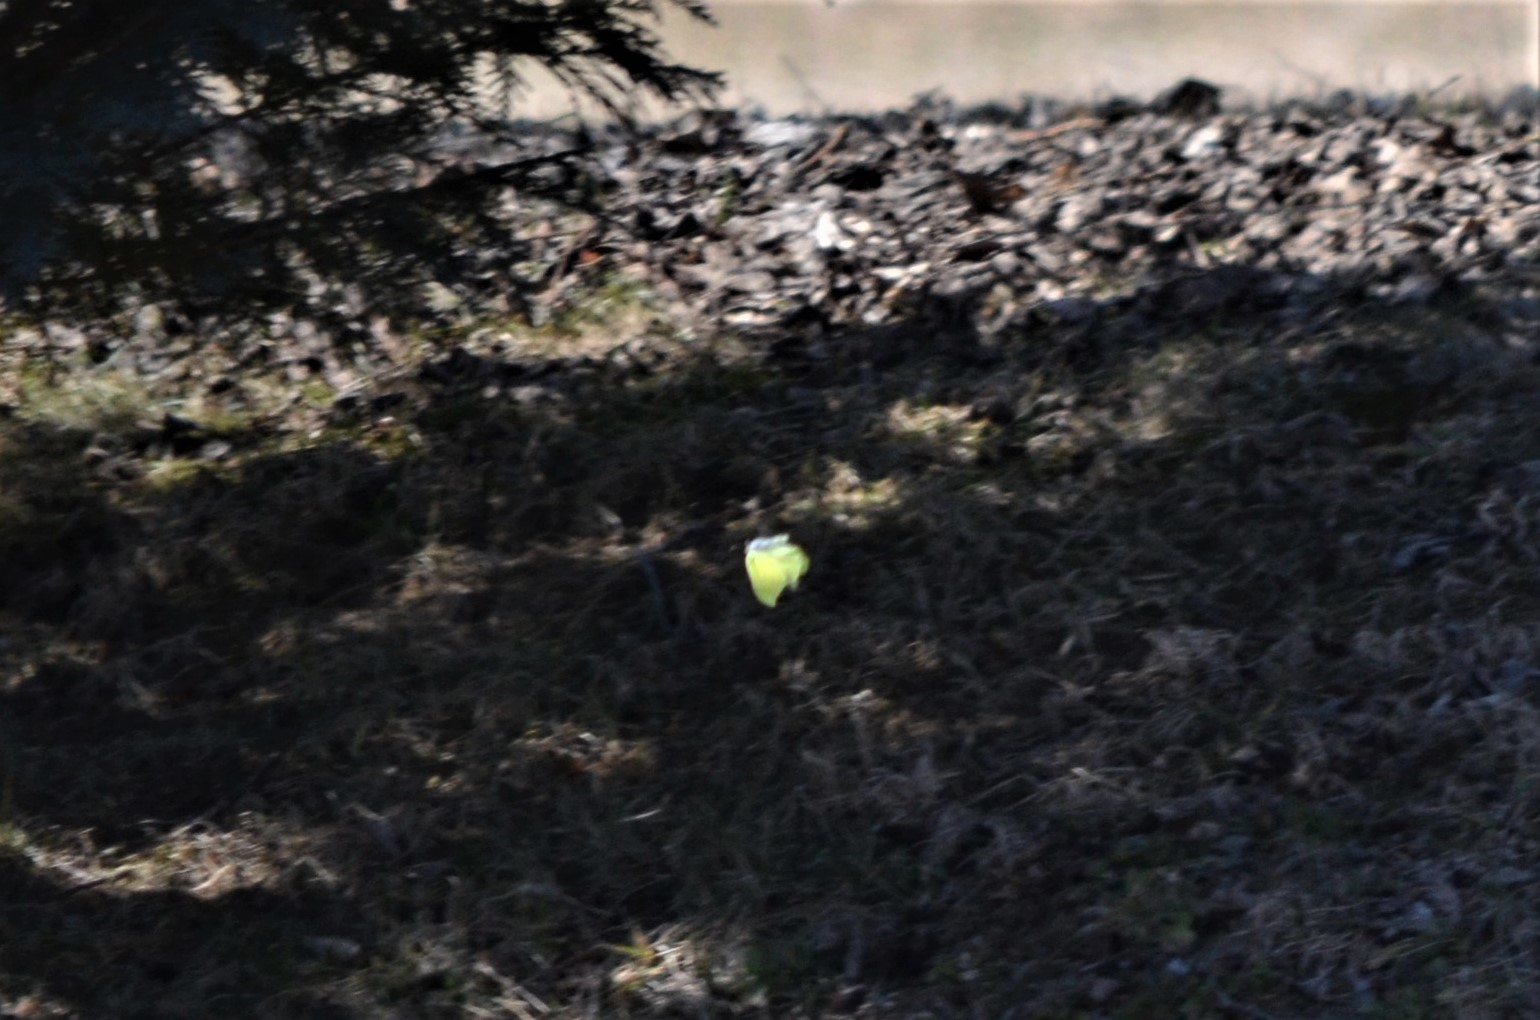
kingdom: Animalia
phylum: Arthropoda
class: Insecta
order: Lepidoptera
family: Pieridae
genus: Gonepteryx
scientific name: Gonepteryx rhamni
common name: Brimstone
